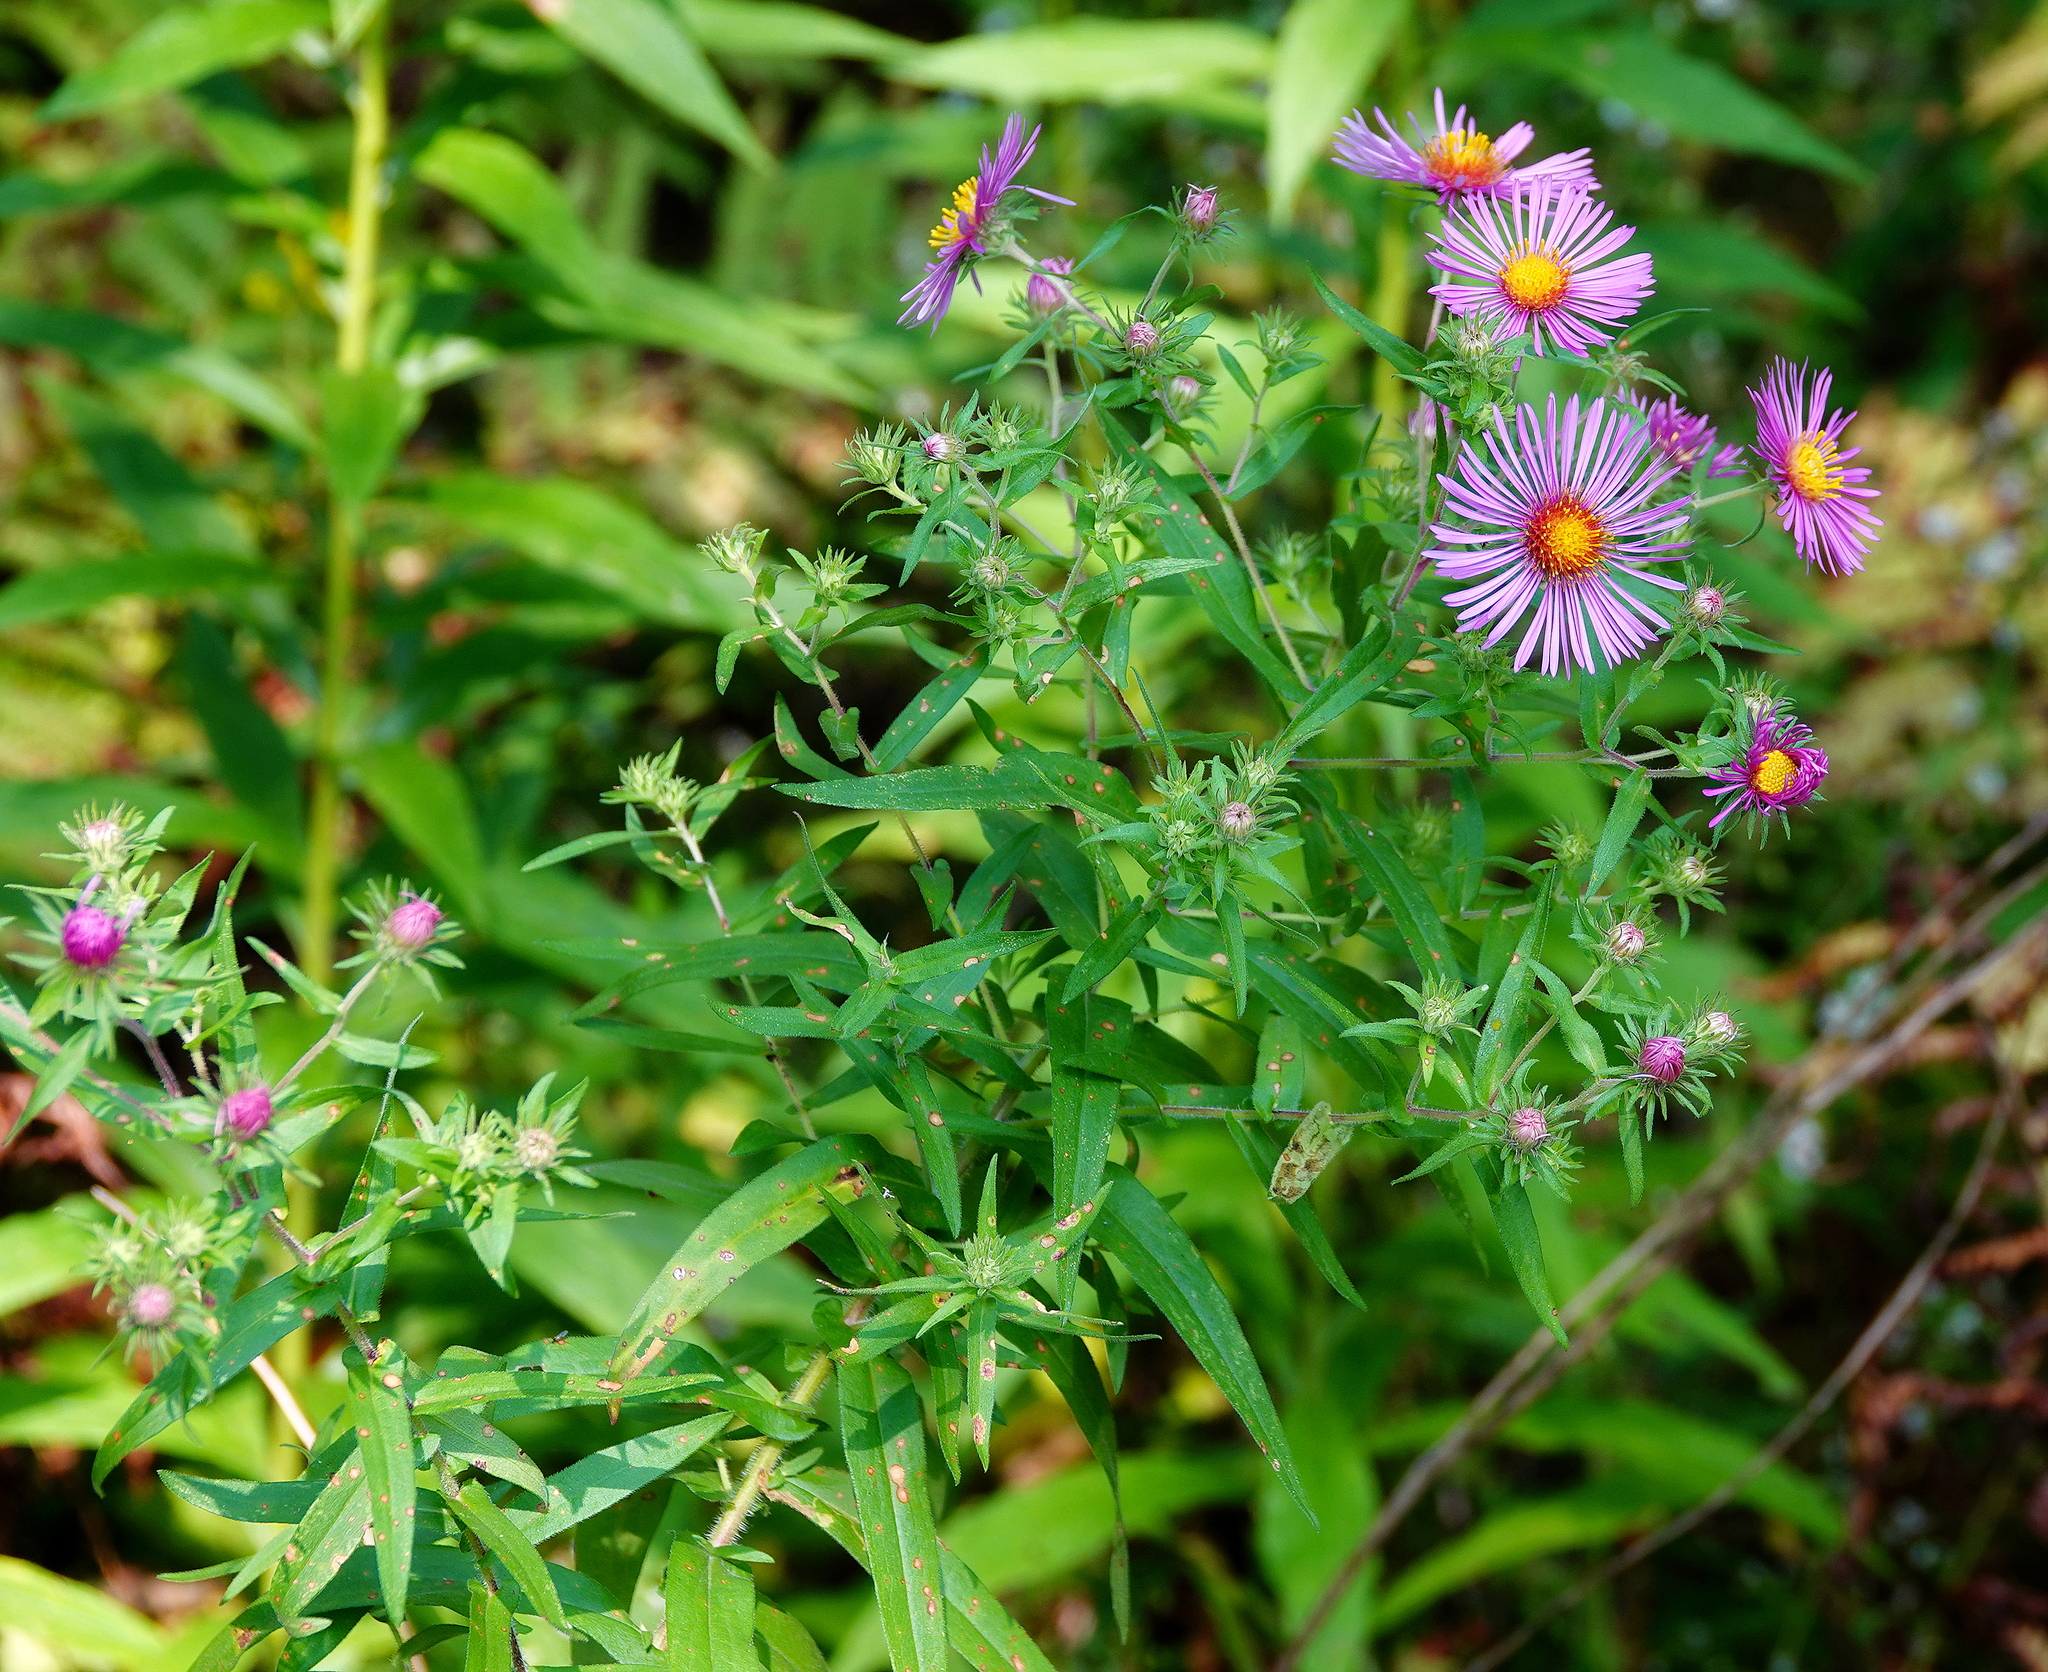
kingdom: Plantae
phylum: Tracheophyta
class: Magnoliopsida
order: Asterales
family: Asteraceae
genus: Symphyotrichum
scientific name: Symphyotrichum novae-angliae
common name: Michaelmas daisy
